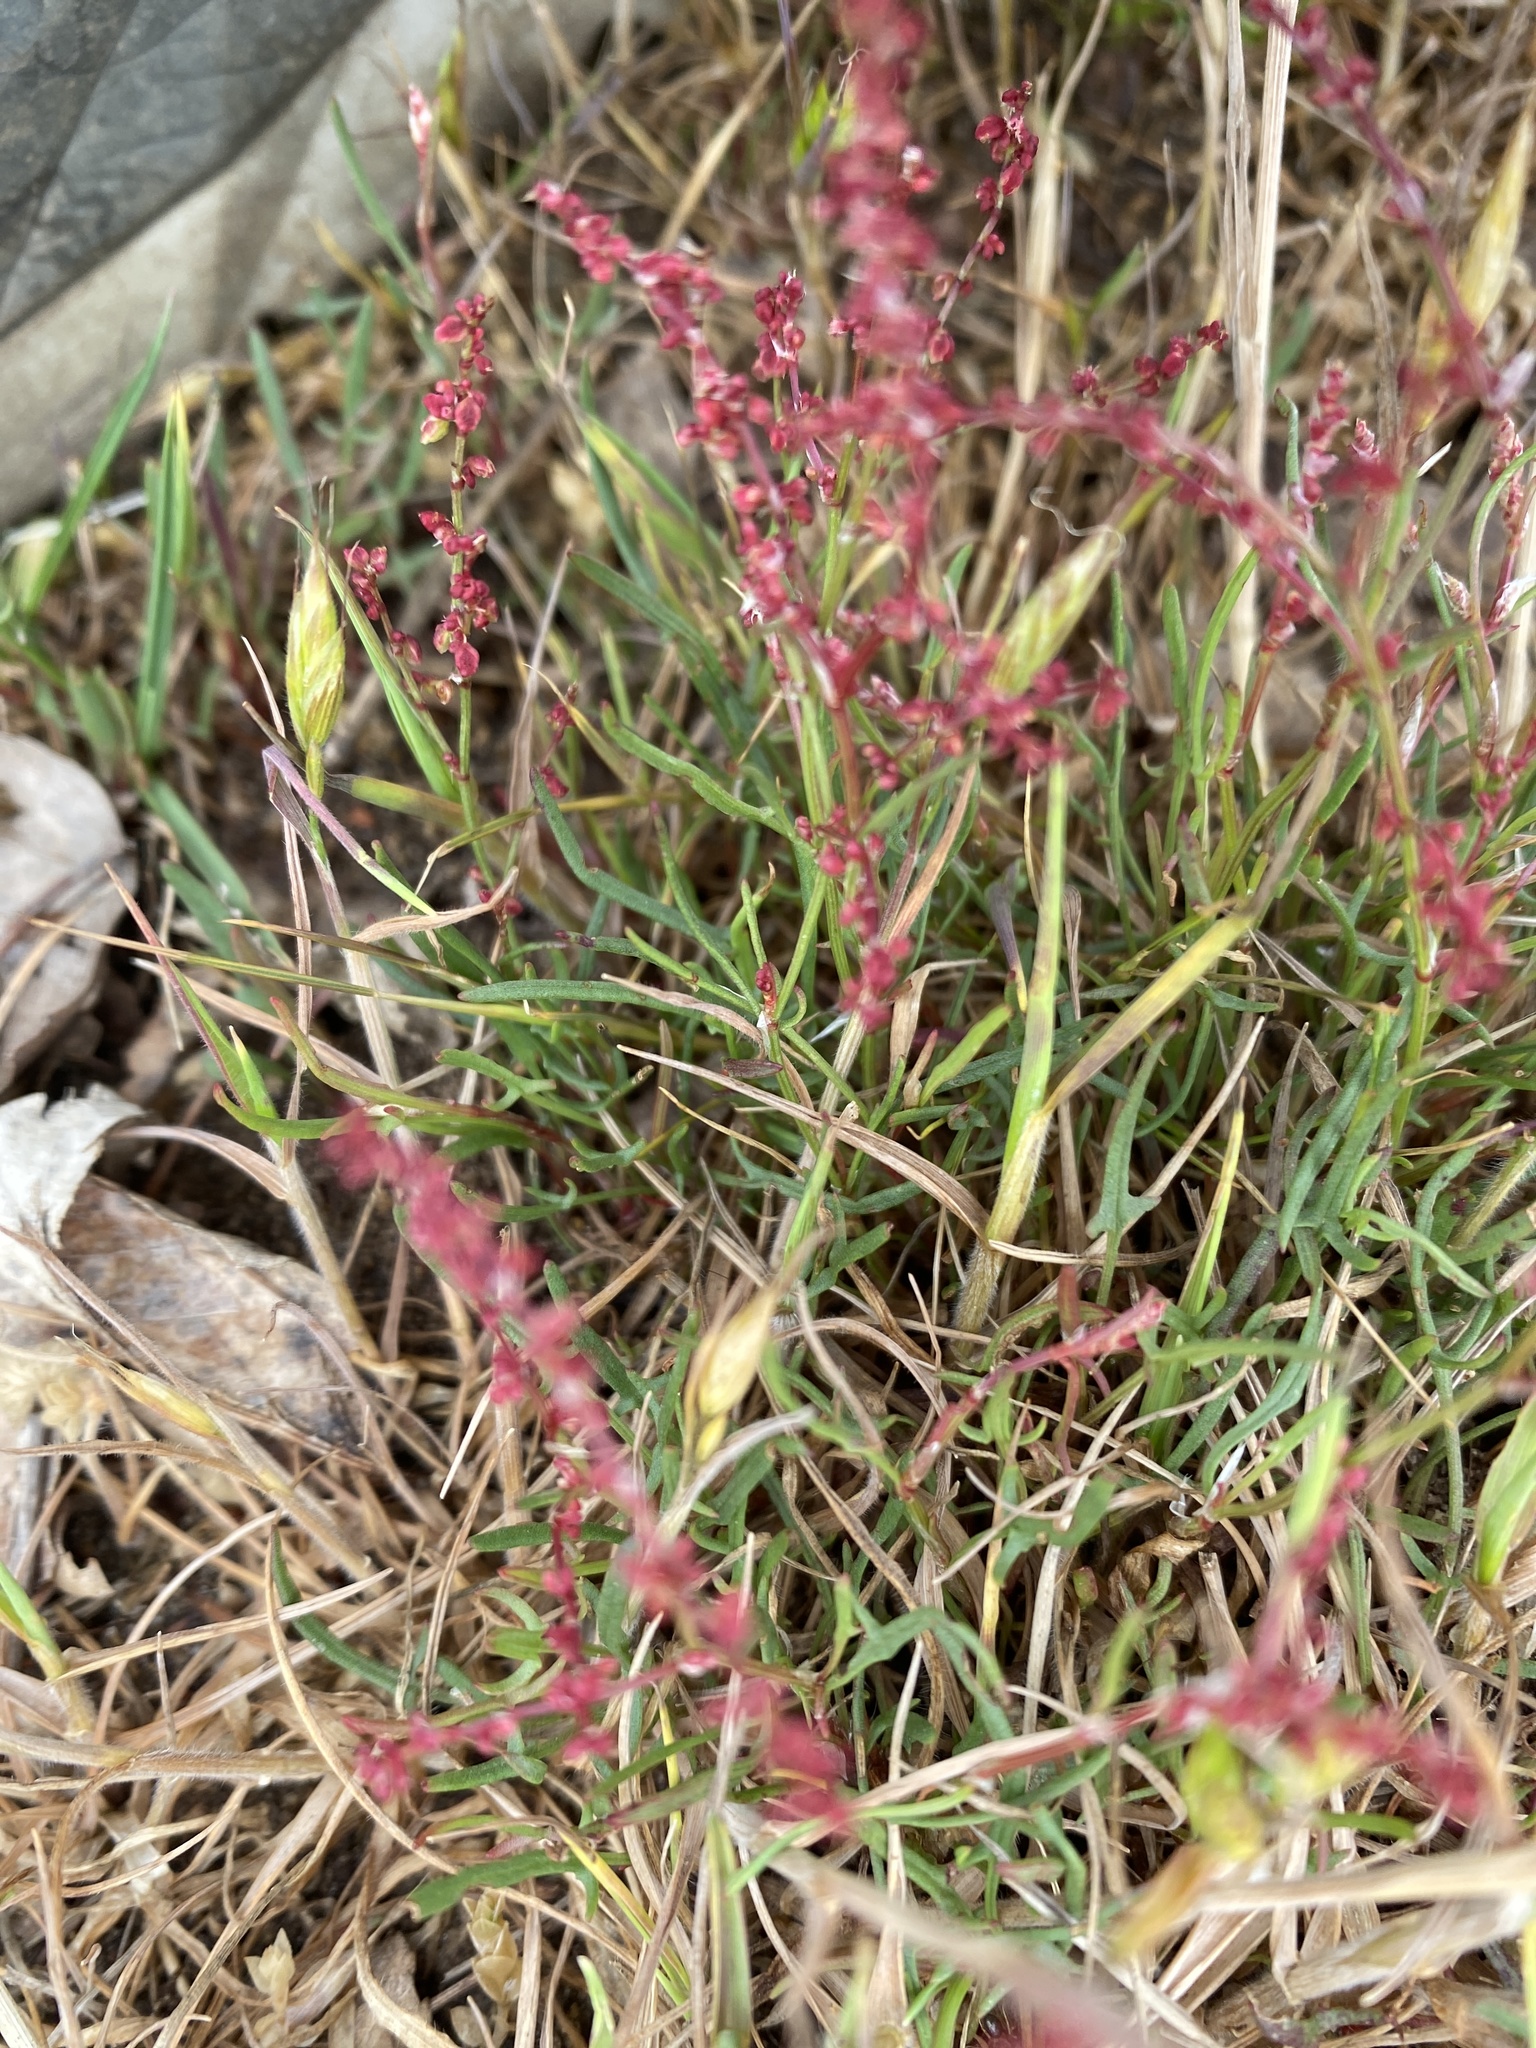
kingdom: Plantae
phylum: Tracheophyta
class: Magnoliopsida
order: Caryophyllales
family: Polygonaceae
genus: Rumex
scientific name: Rumex acetosella
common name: Common sheep sorrel
